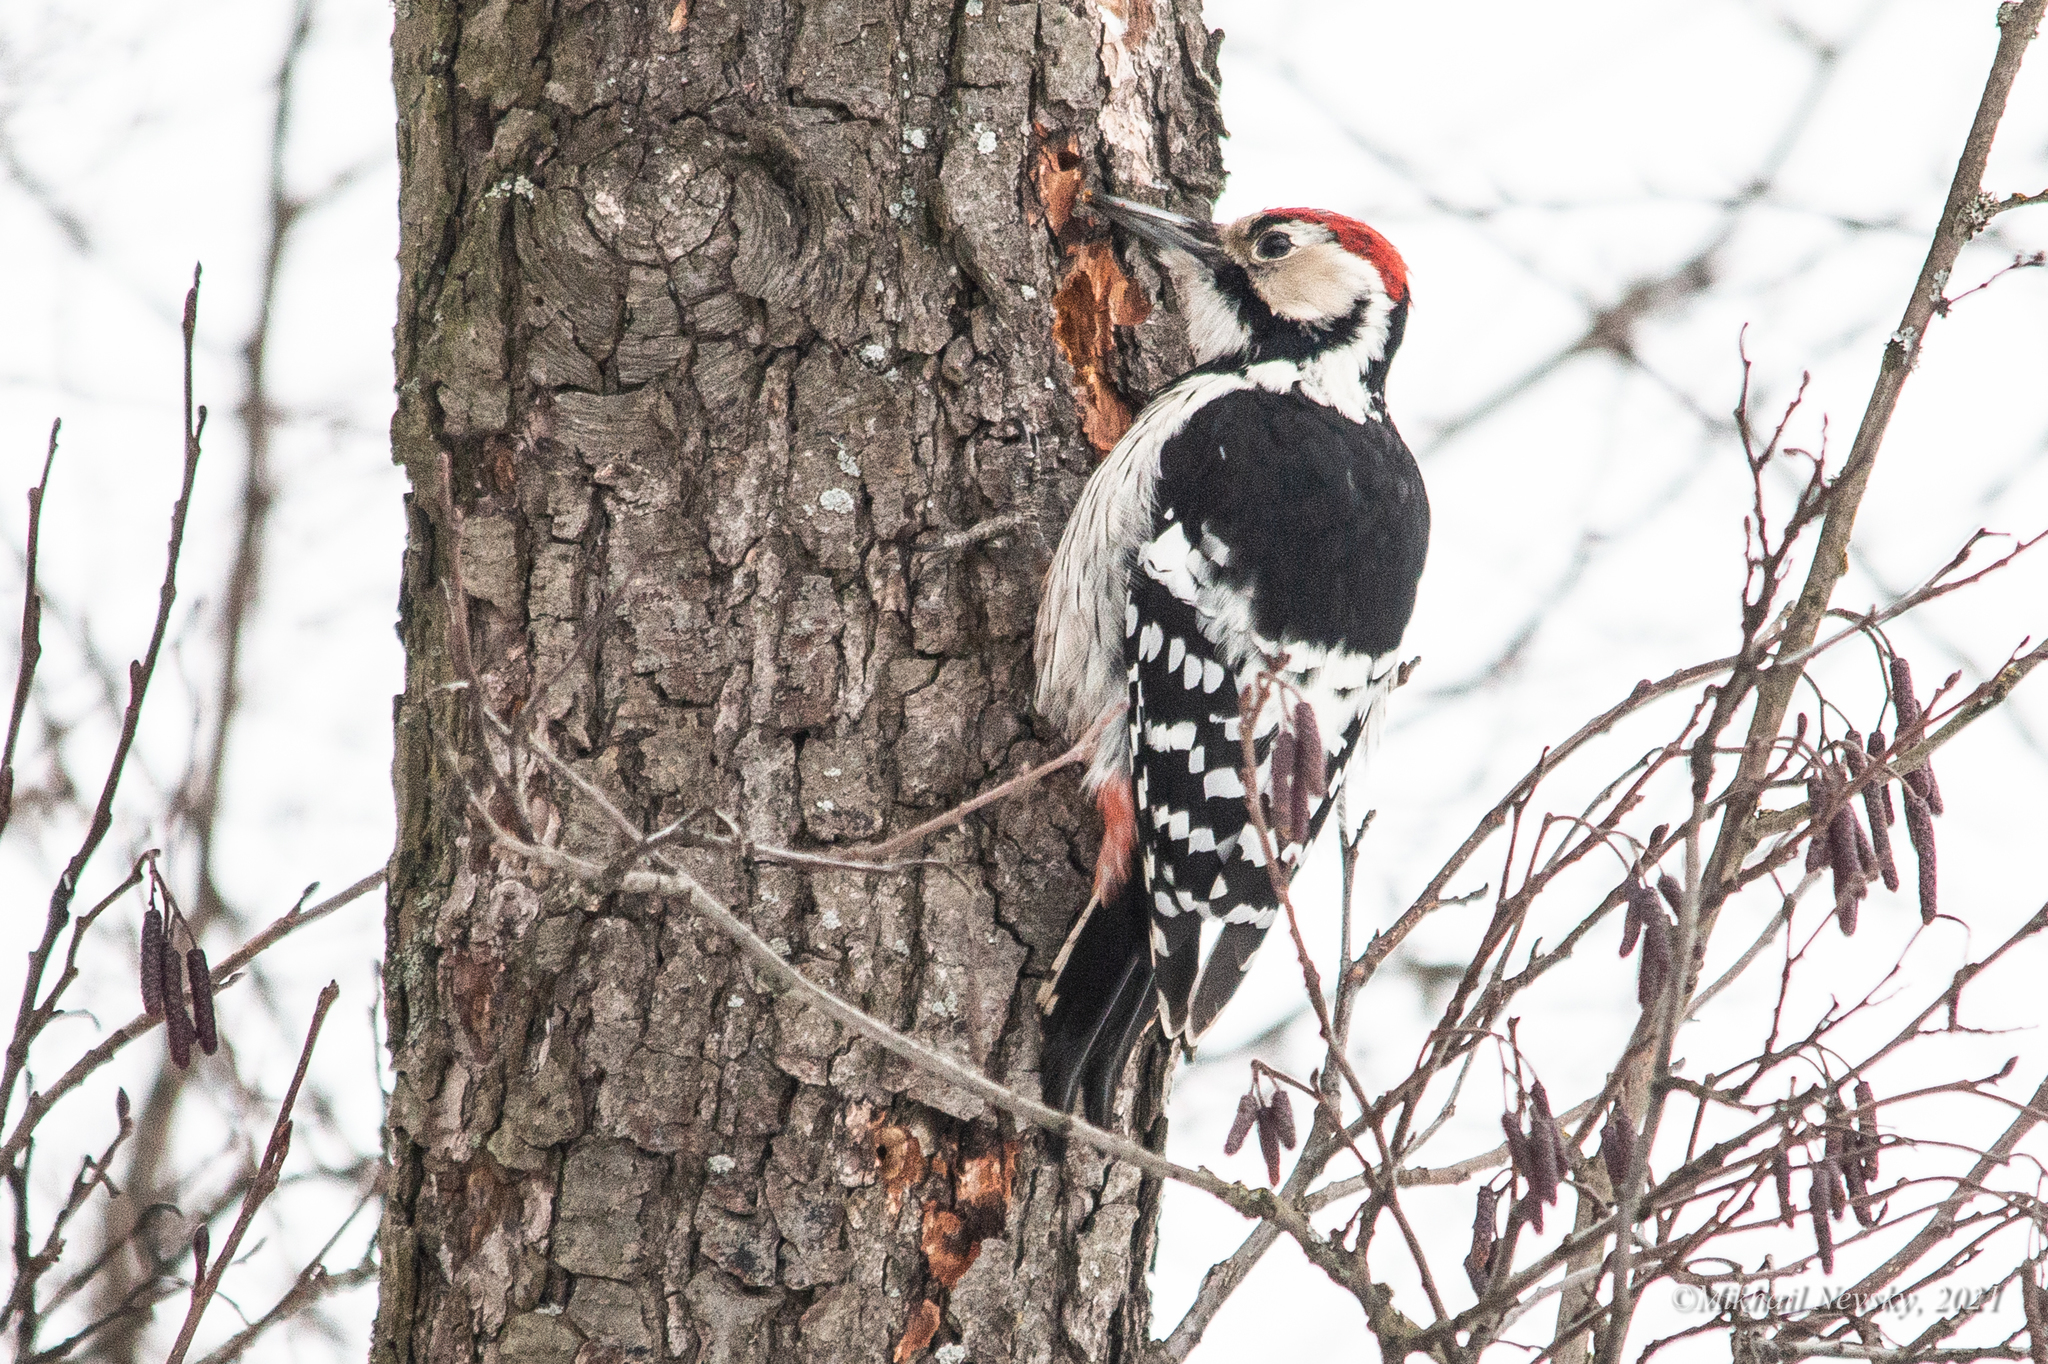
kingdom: Animalia
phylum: Chordata
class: Aves
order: Piciformes
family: Picidae
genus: Dendrocopos
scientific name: Dendrocopos leucotos
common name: White-backed woodpecker
